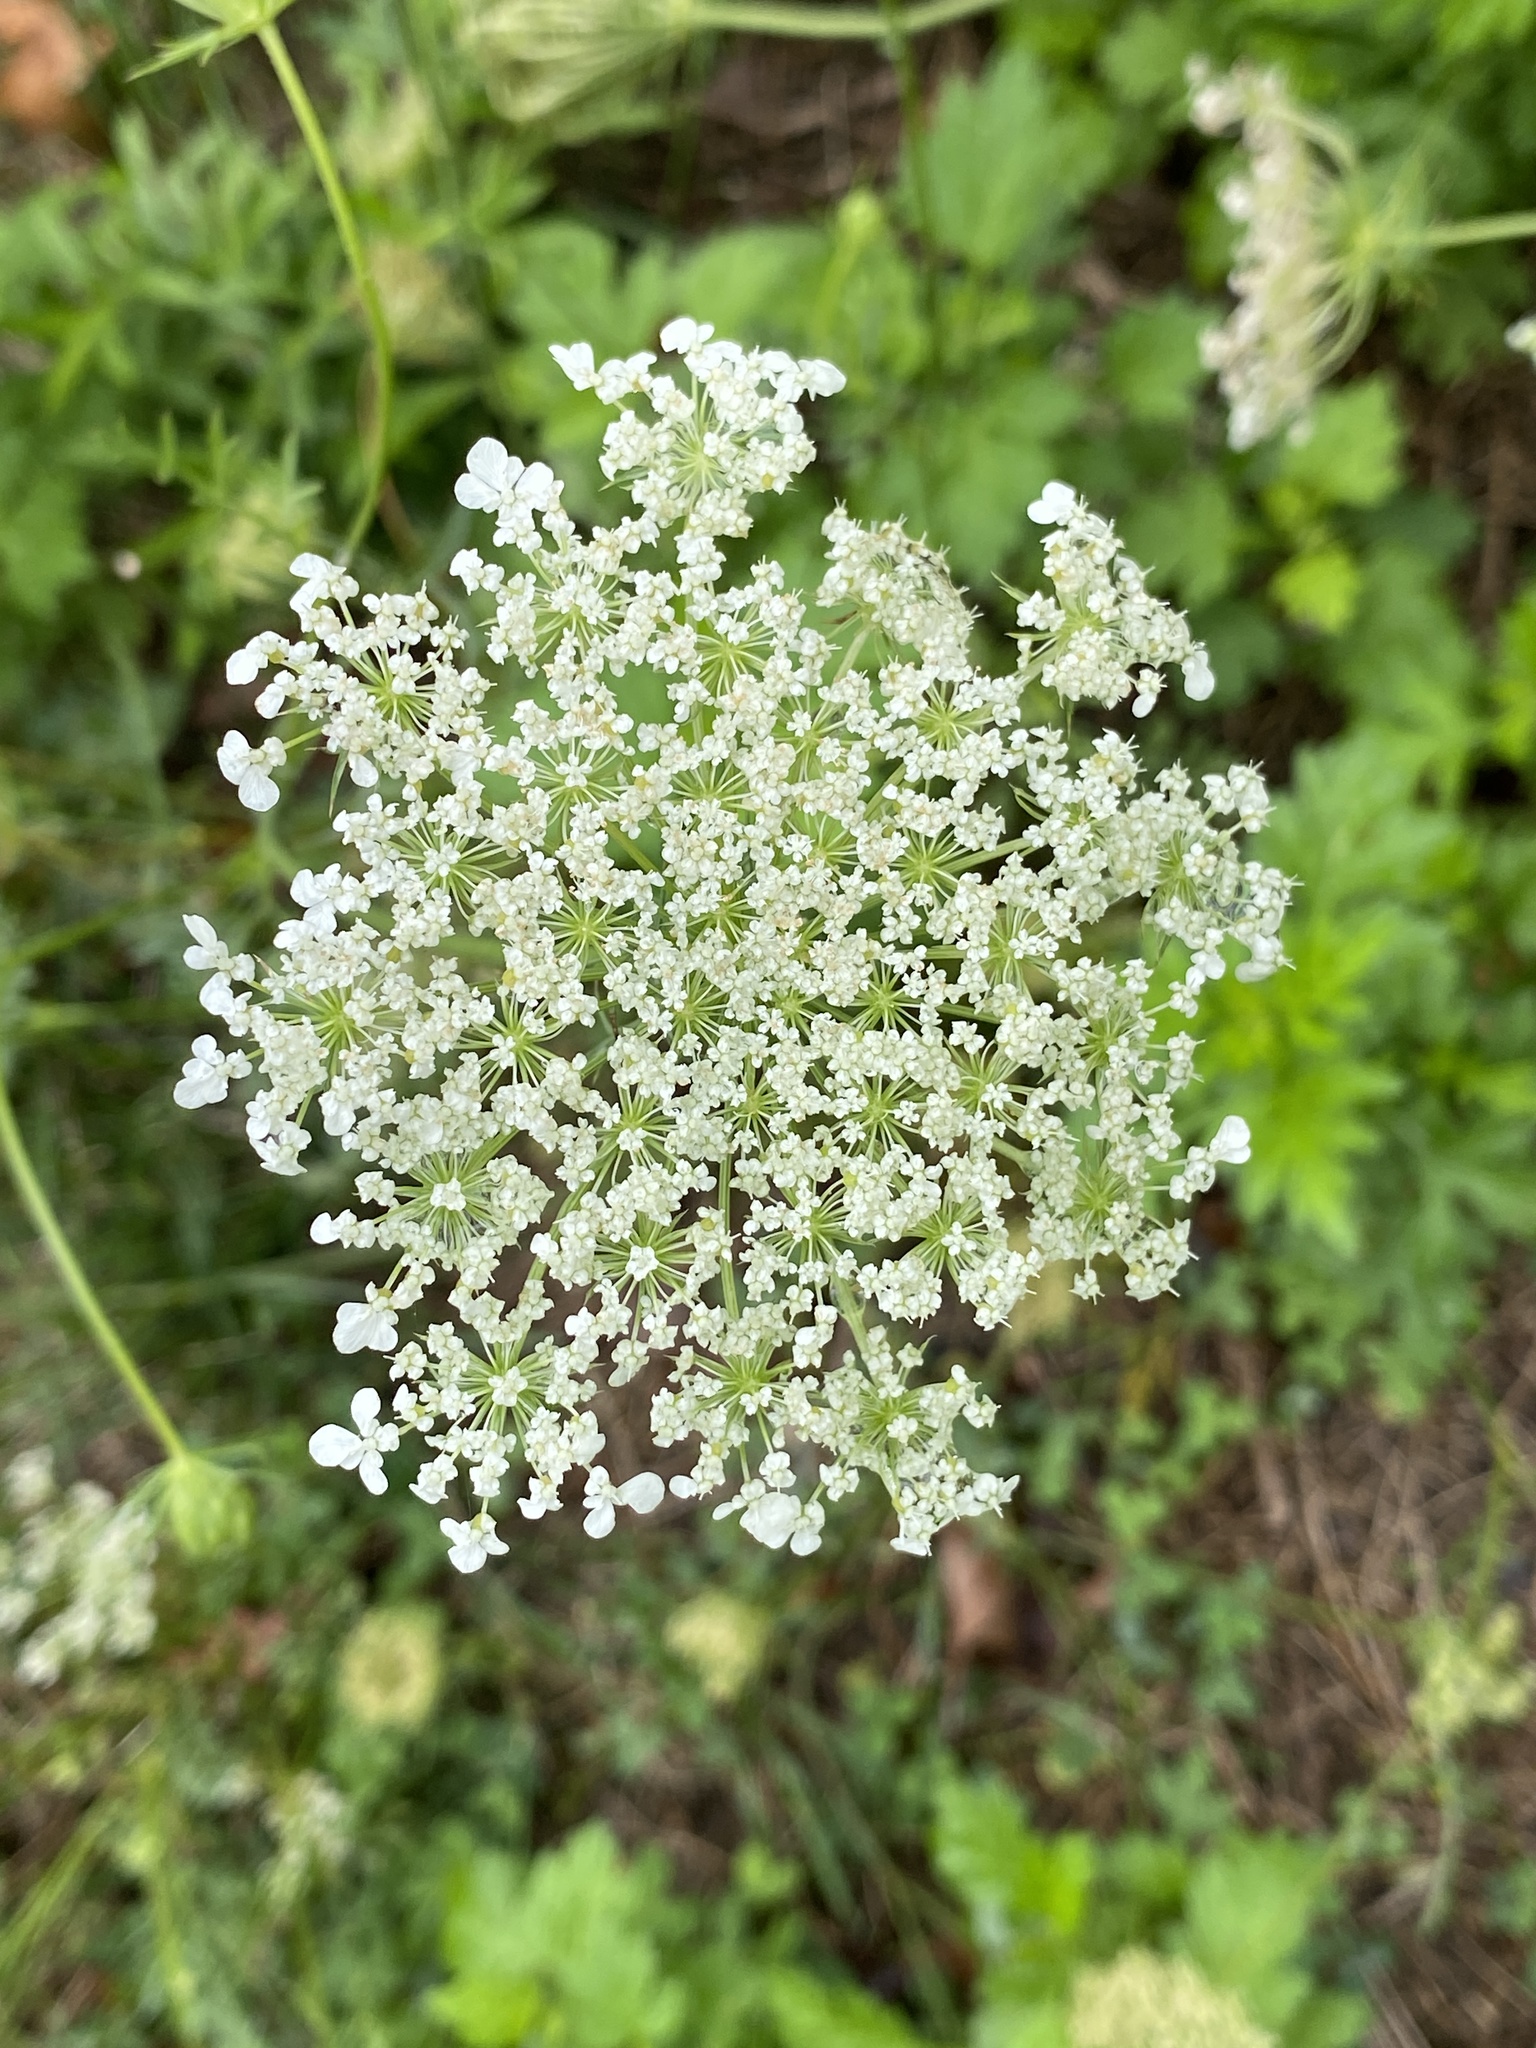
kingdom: Plantae
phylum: Tracheophyta
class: Magnoliopsida
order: Apiales
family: Apiaceae
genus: Daucus
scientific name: Daucus carota
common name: Wild carrot
